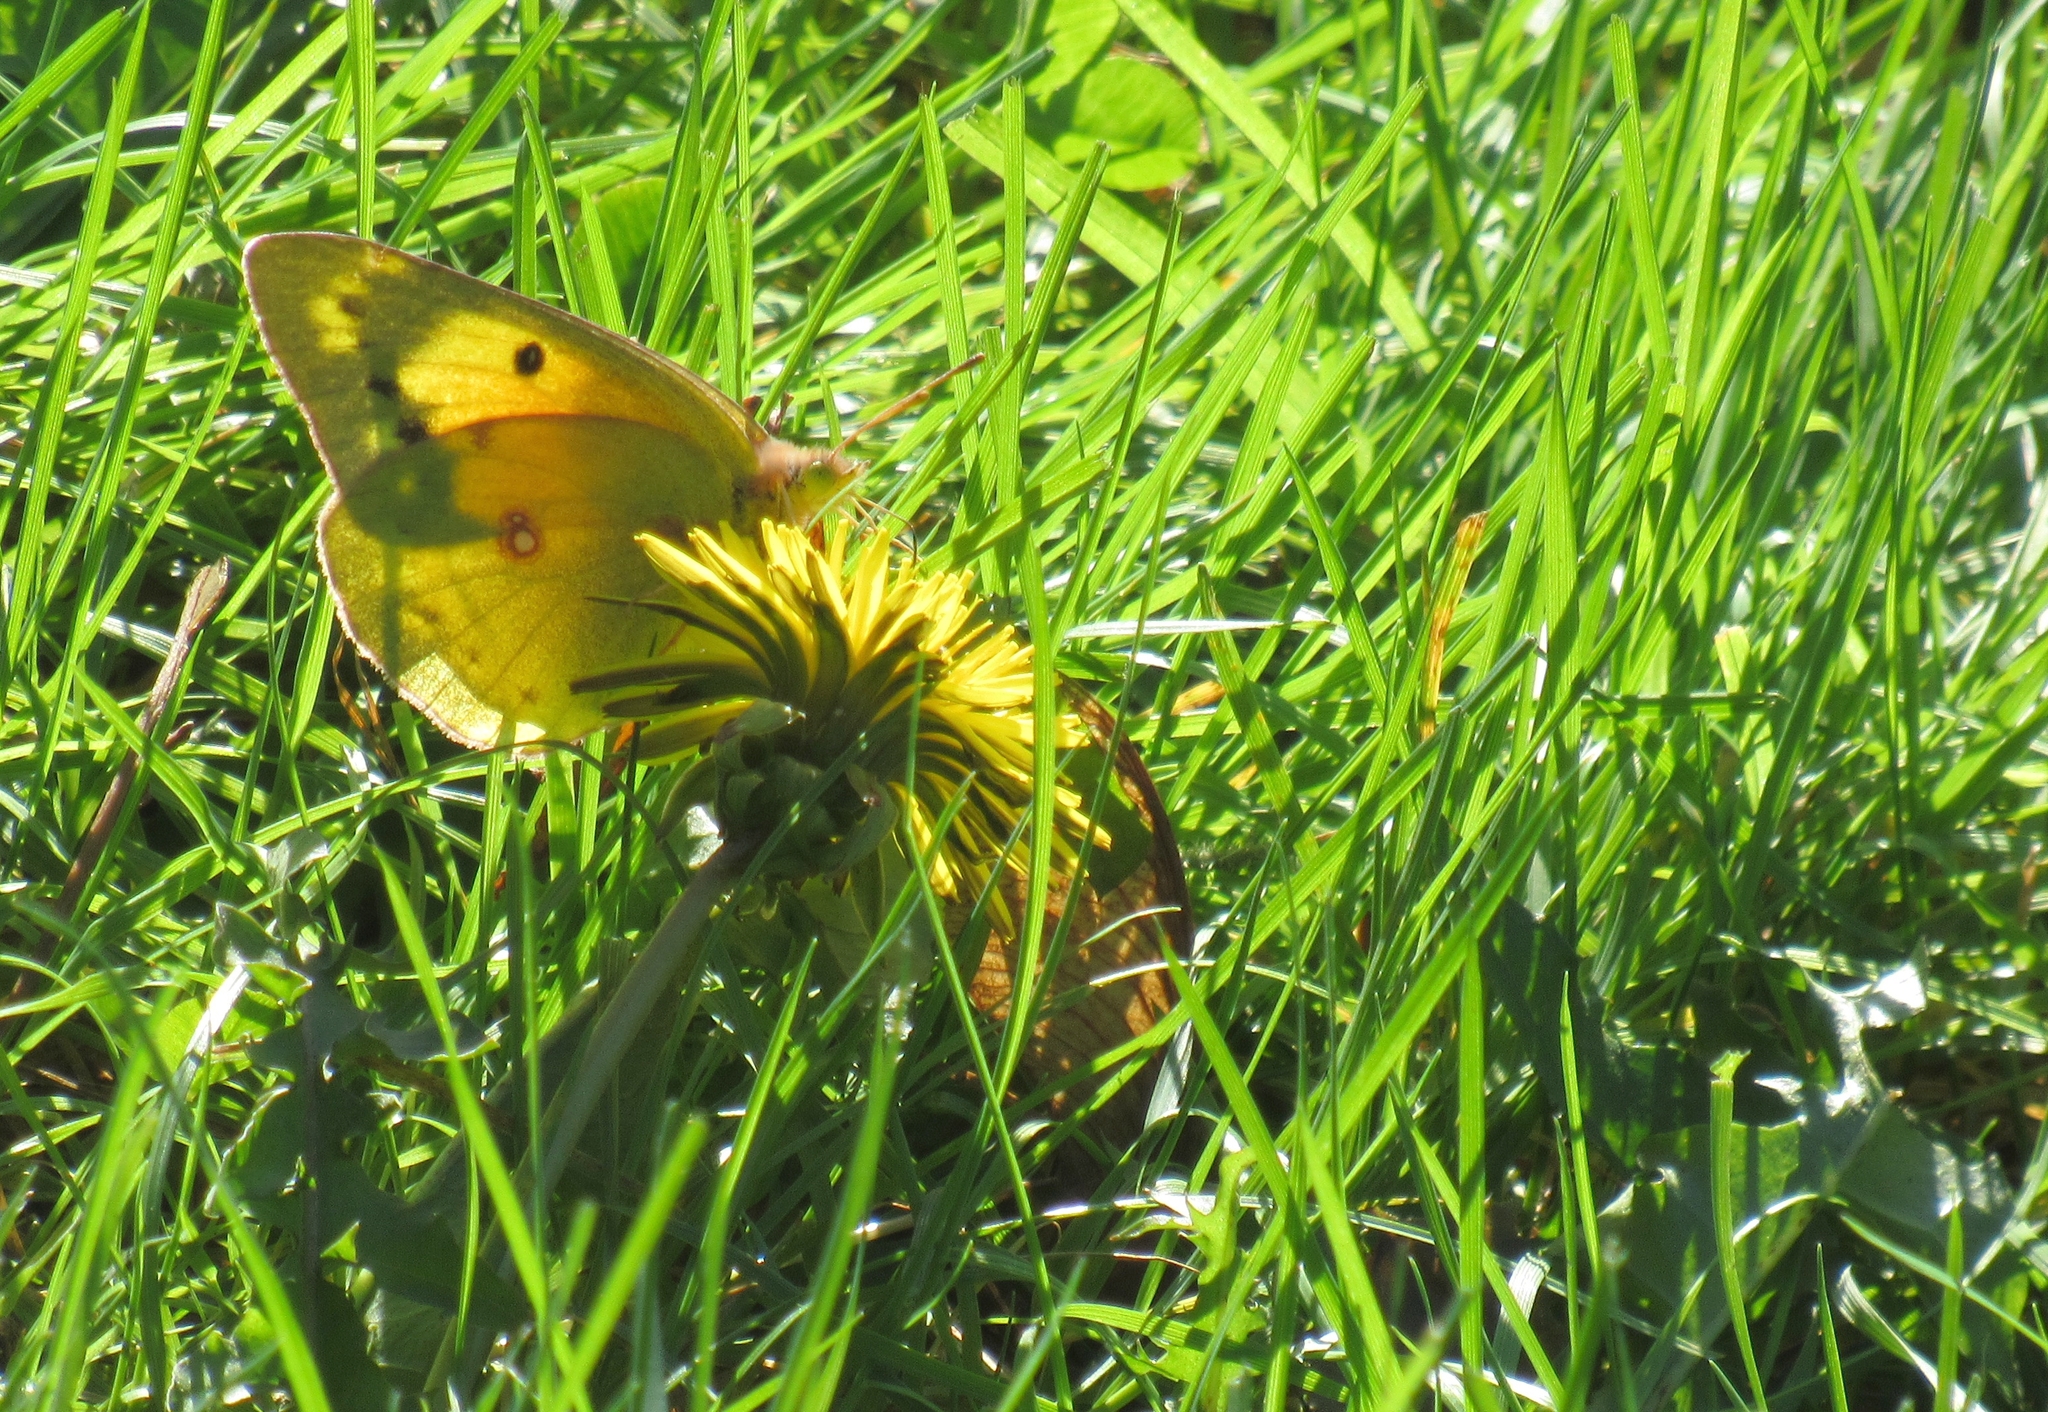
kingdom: Animalia
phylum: Arthropoda
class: Insecta
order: Lepidoptera
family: Pieridae
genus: Colias
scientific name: Colias eurytheme
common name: Alfalfa butterfly
